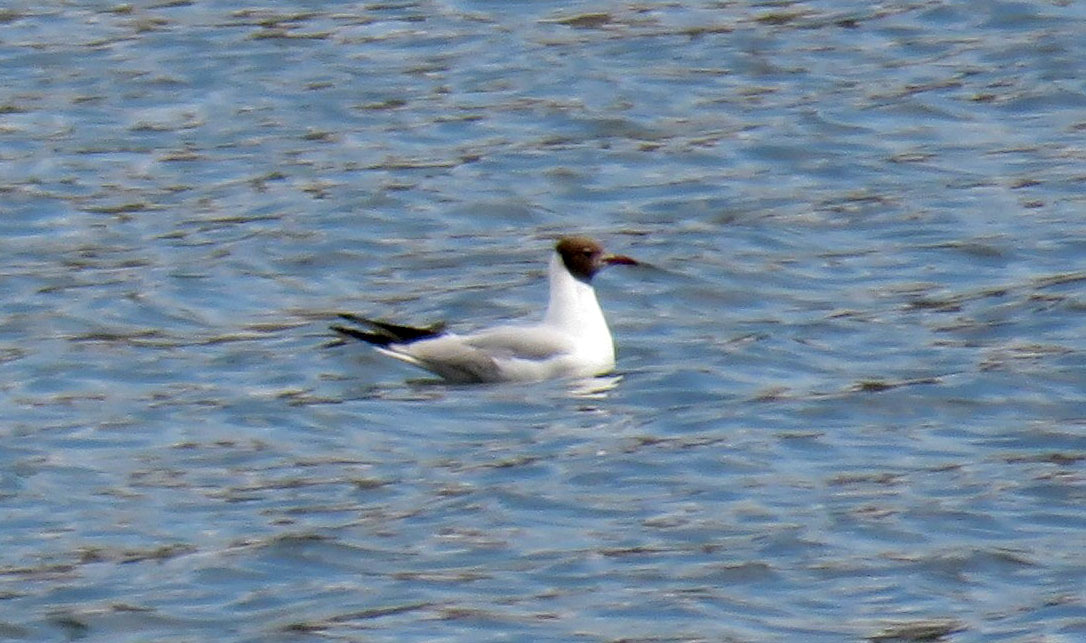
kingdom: Animalia
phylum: Chordata
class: Aves
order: Charadriiformes
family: Laridae
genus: Chroicocephalus
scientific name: Chroicocephalus ridibundus
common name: Black-headed gull
